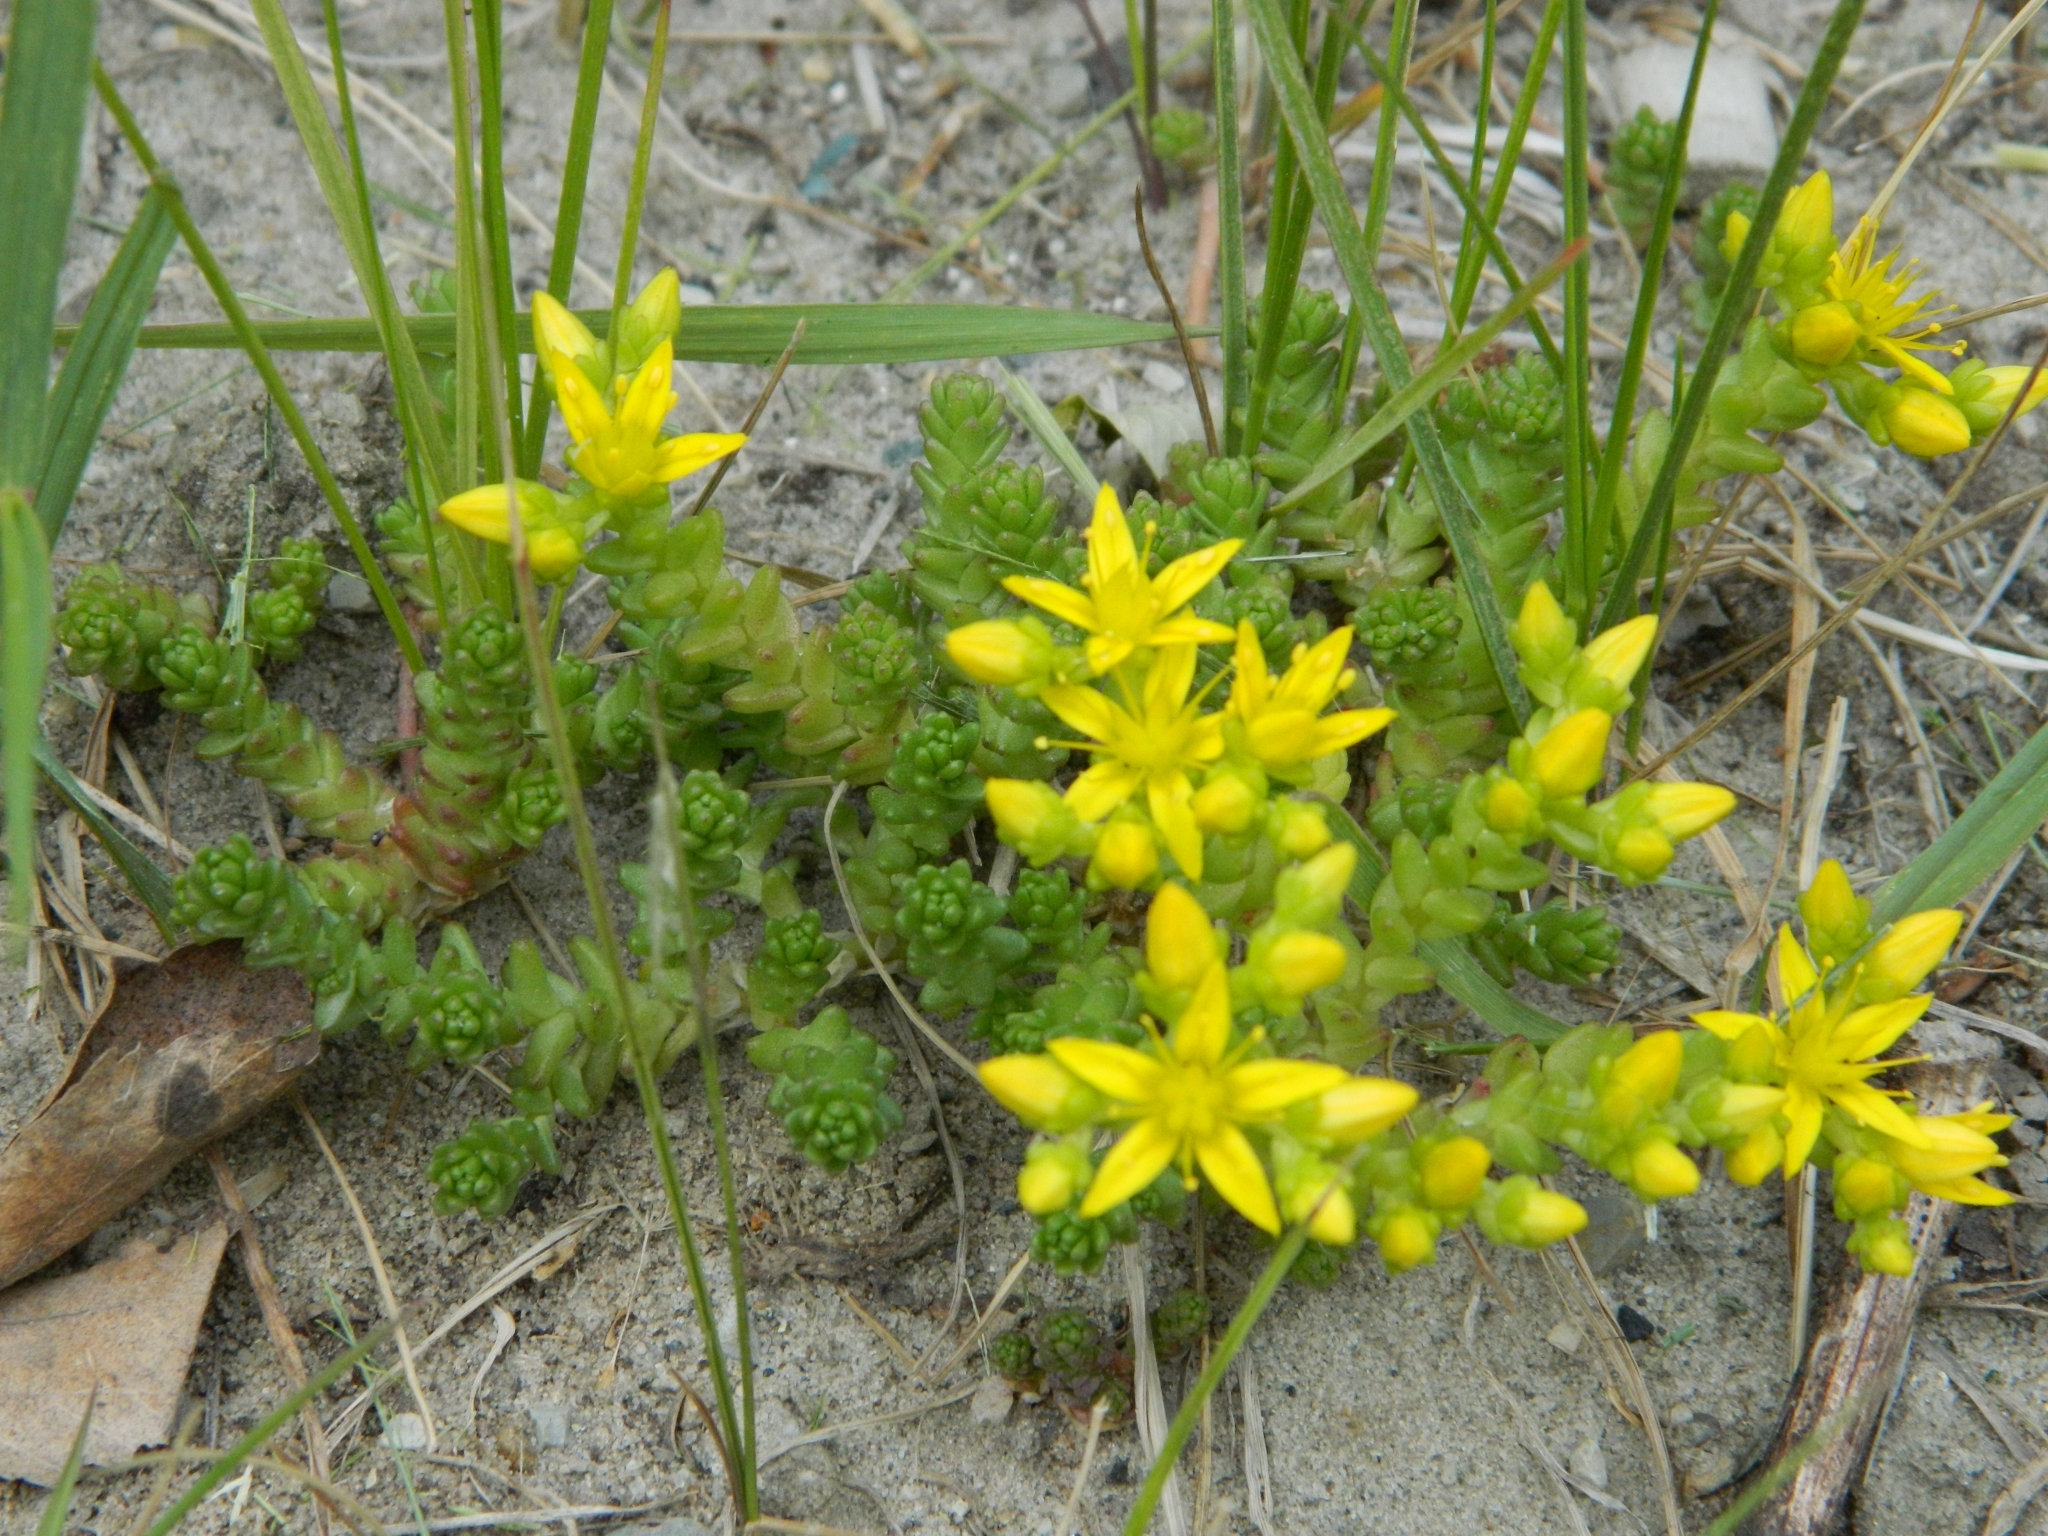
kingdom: Plantae
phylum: Tracheophyta
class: Magnoliopsida
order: Saxifragales
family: Crassulaceae
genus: Sedum
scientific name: Sedum acre
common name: Biting stonecrop
